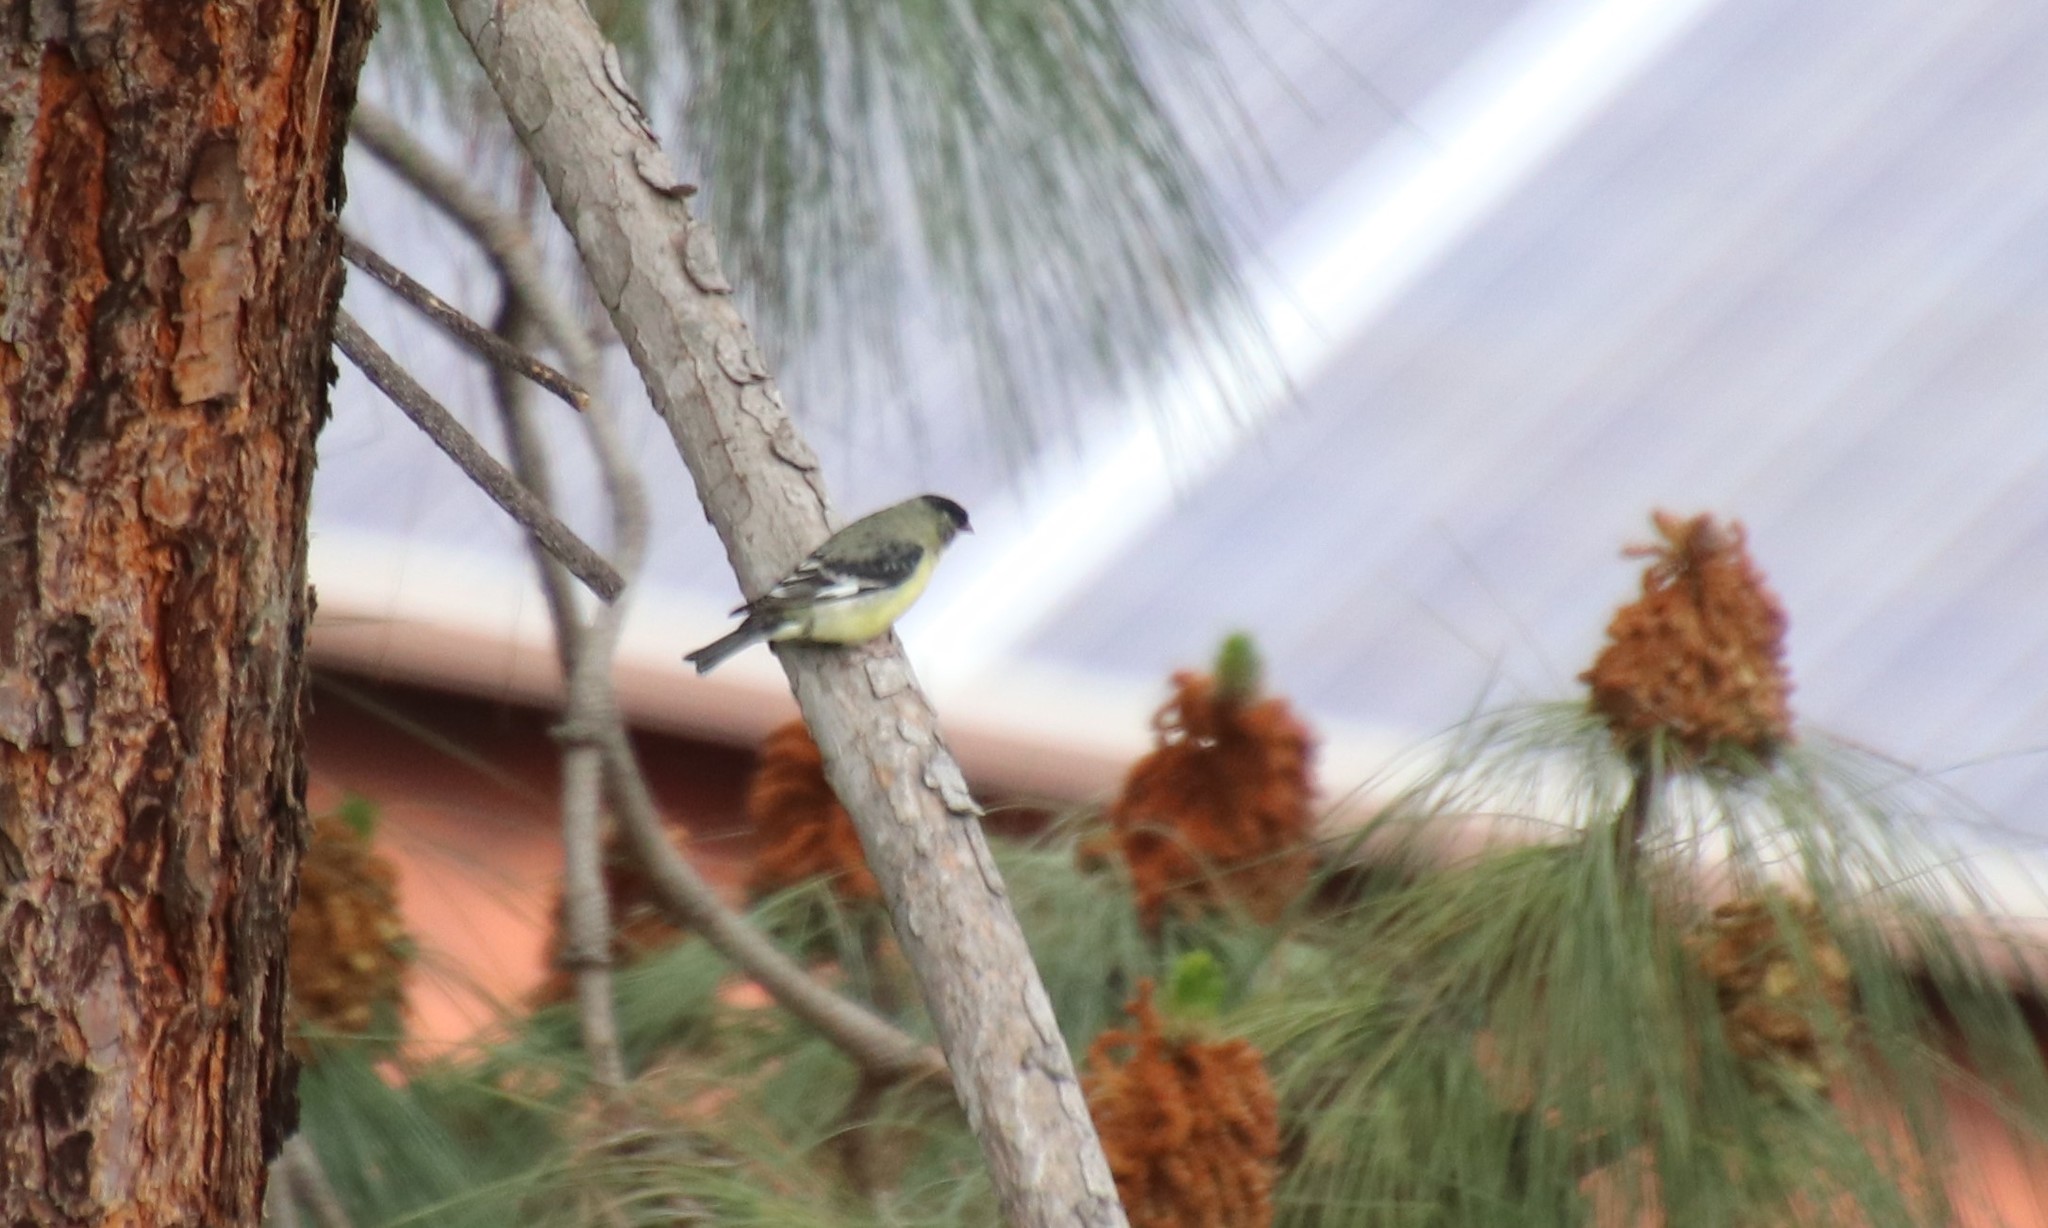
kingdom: Animalia
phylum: Chordata
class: Aves
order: Passeriformes
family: Fringillidae
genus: Spinus
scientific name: Spinus psaltria
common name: Lesser goldfinch
